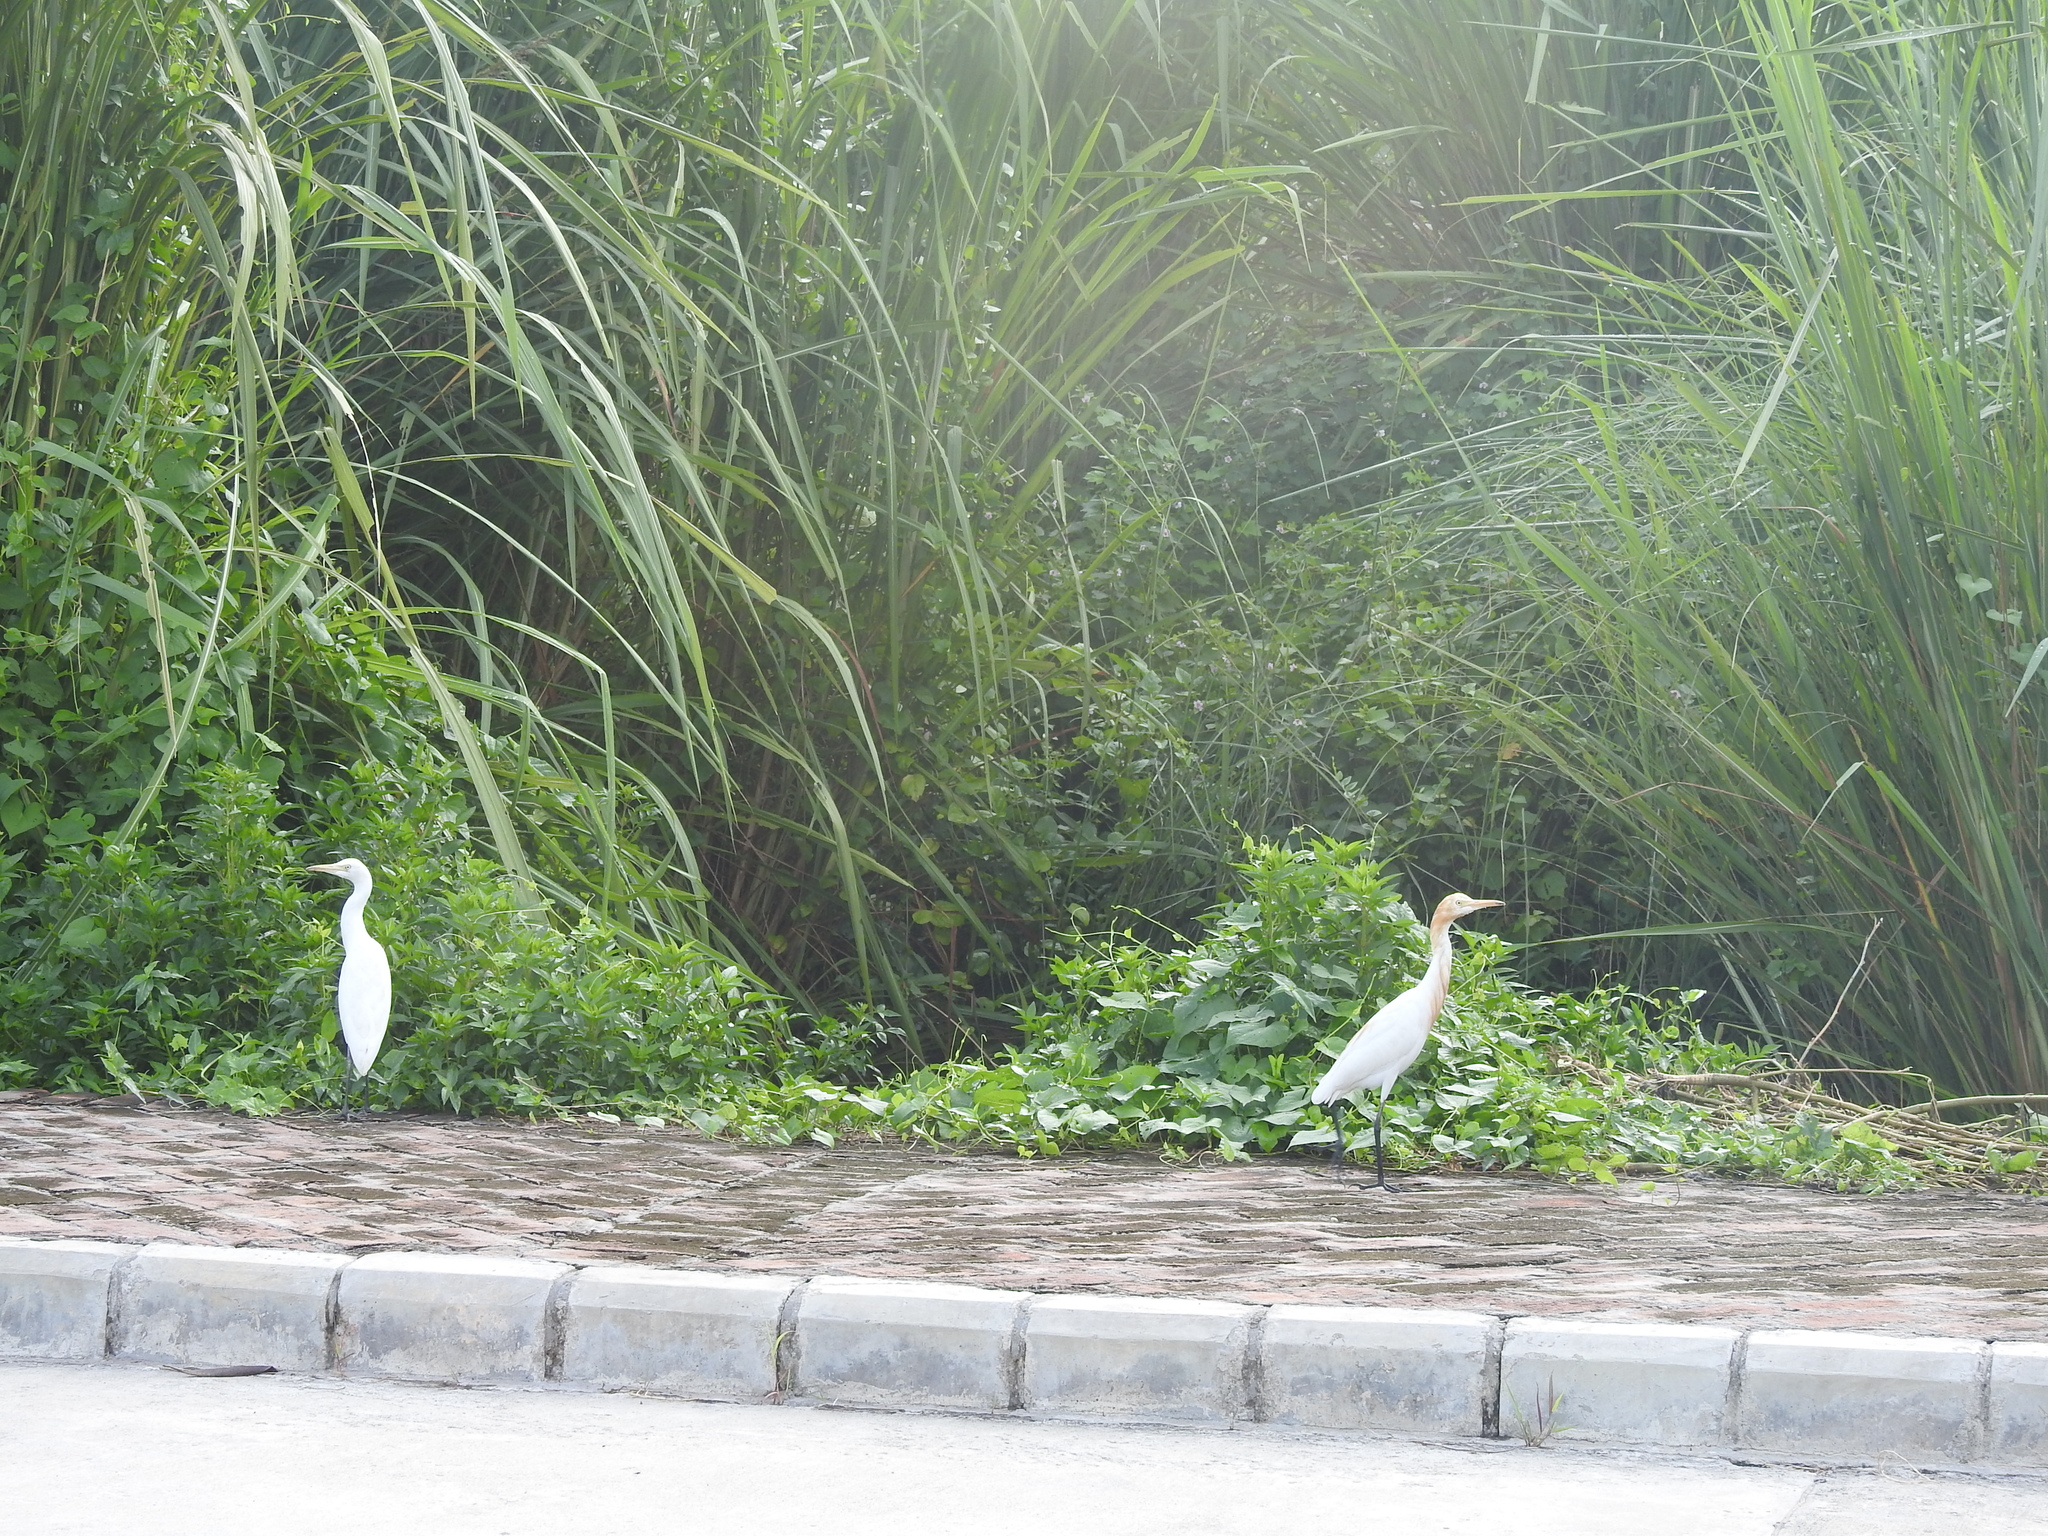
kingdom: Animalia
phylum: Chordata
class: Aves
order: Pelecaniformes
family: Ardeidae
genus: Bubulcus
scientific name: Bubulcus coromandus
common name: Eastern cattle egret
